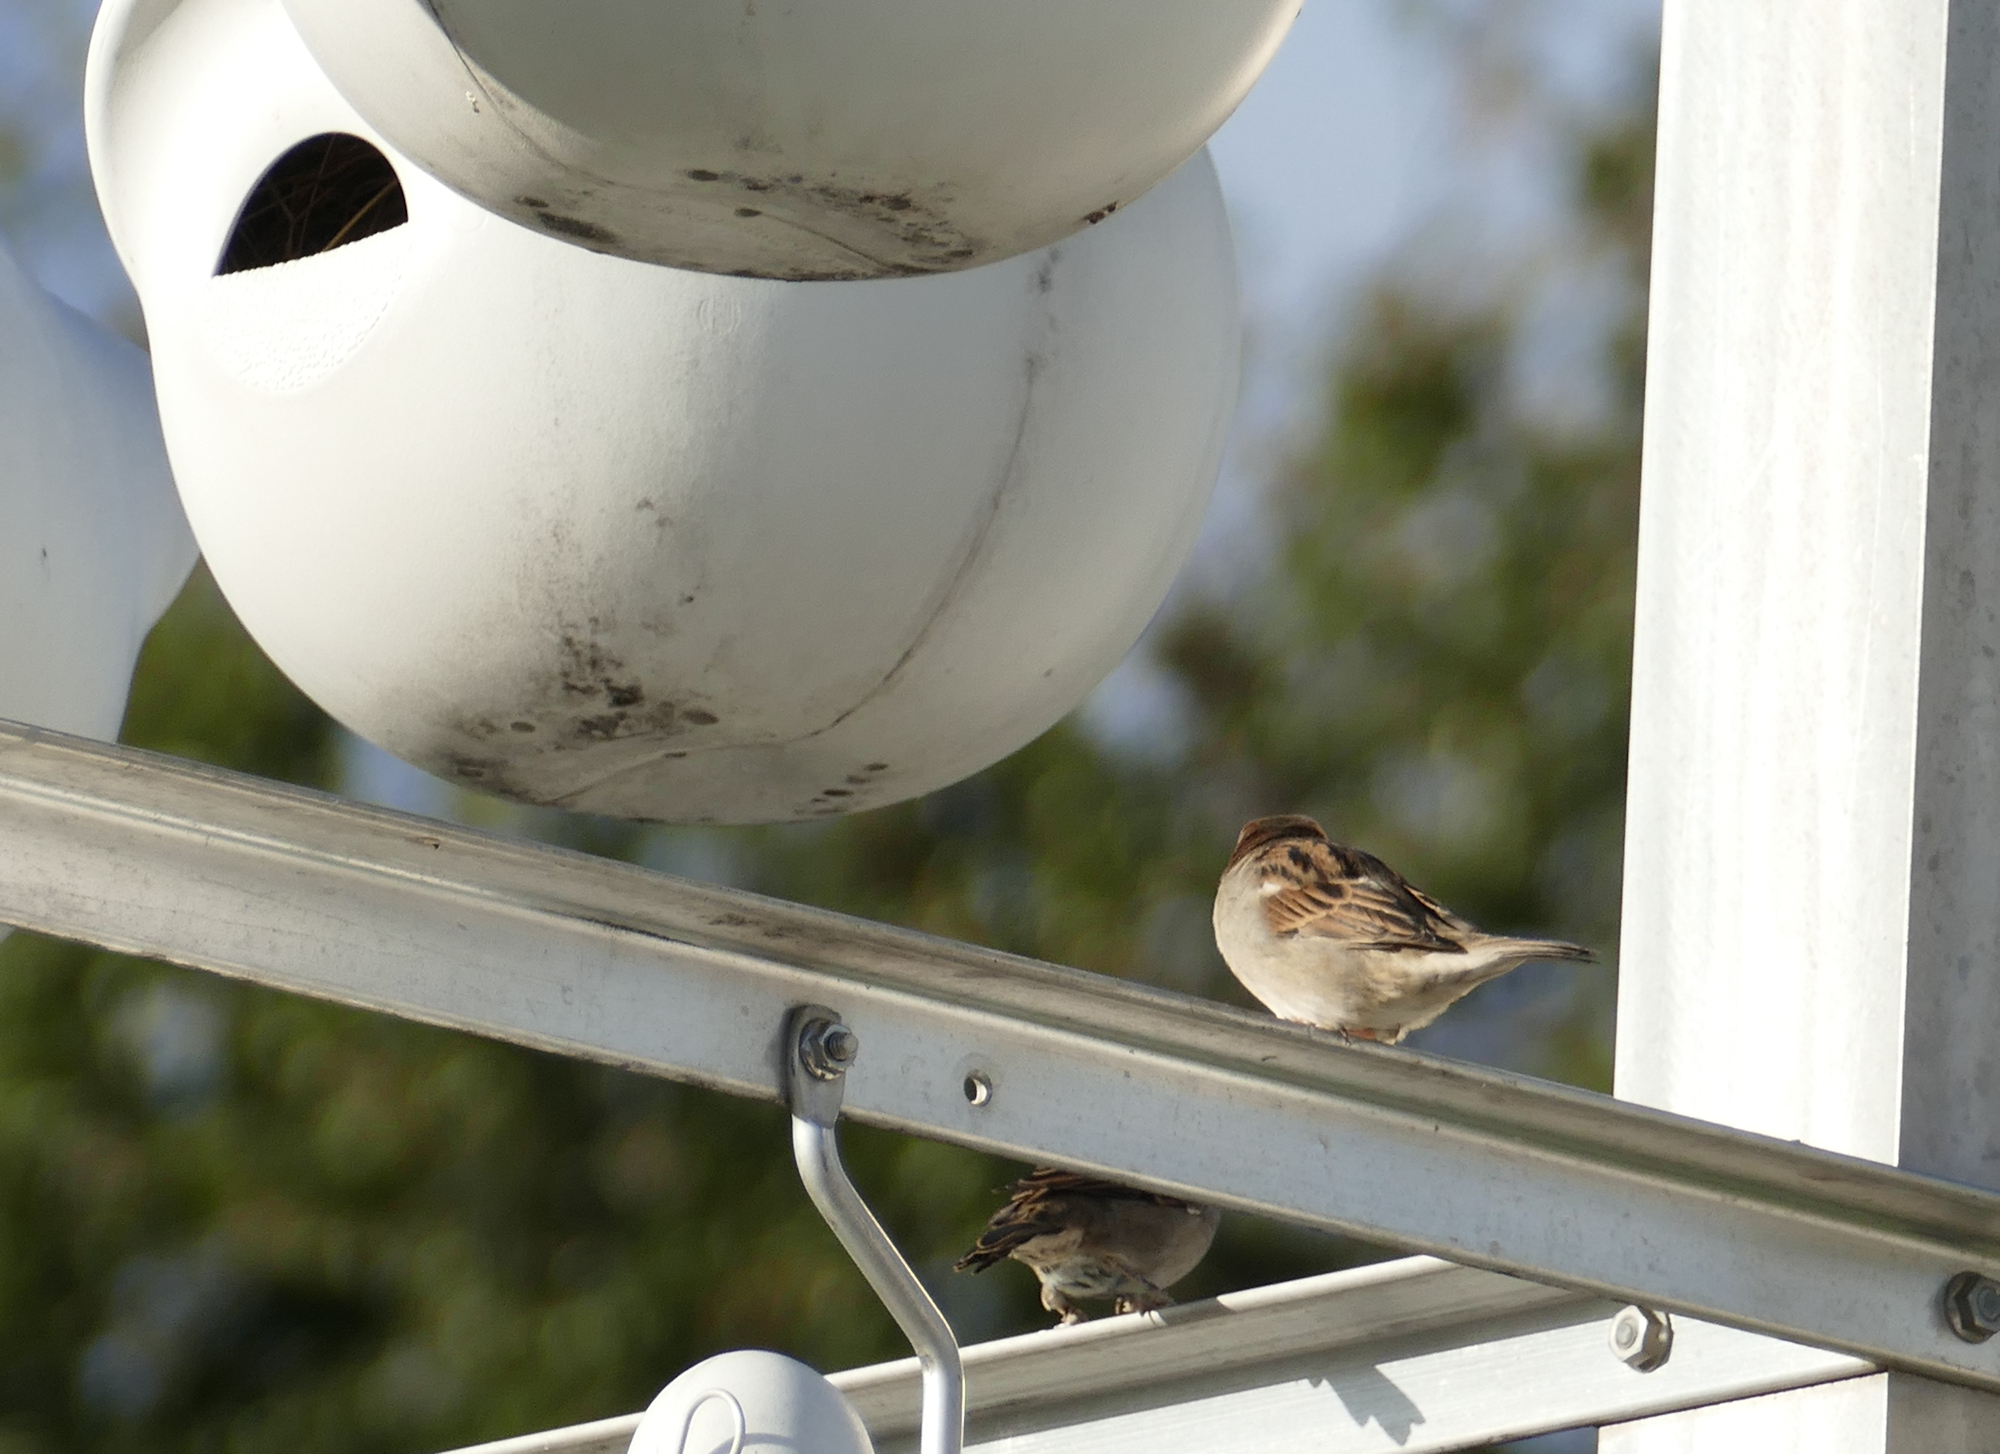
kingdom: Animalia
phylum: Chordata
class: Aves
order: Passeriformes
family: Passeridae
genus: Passer
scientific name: Passer domesticus
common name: House sparrow
